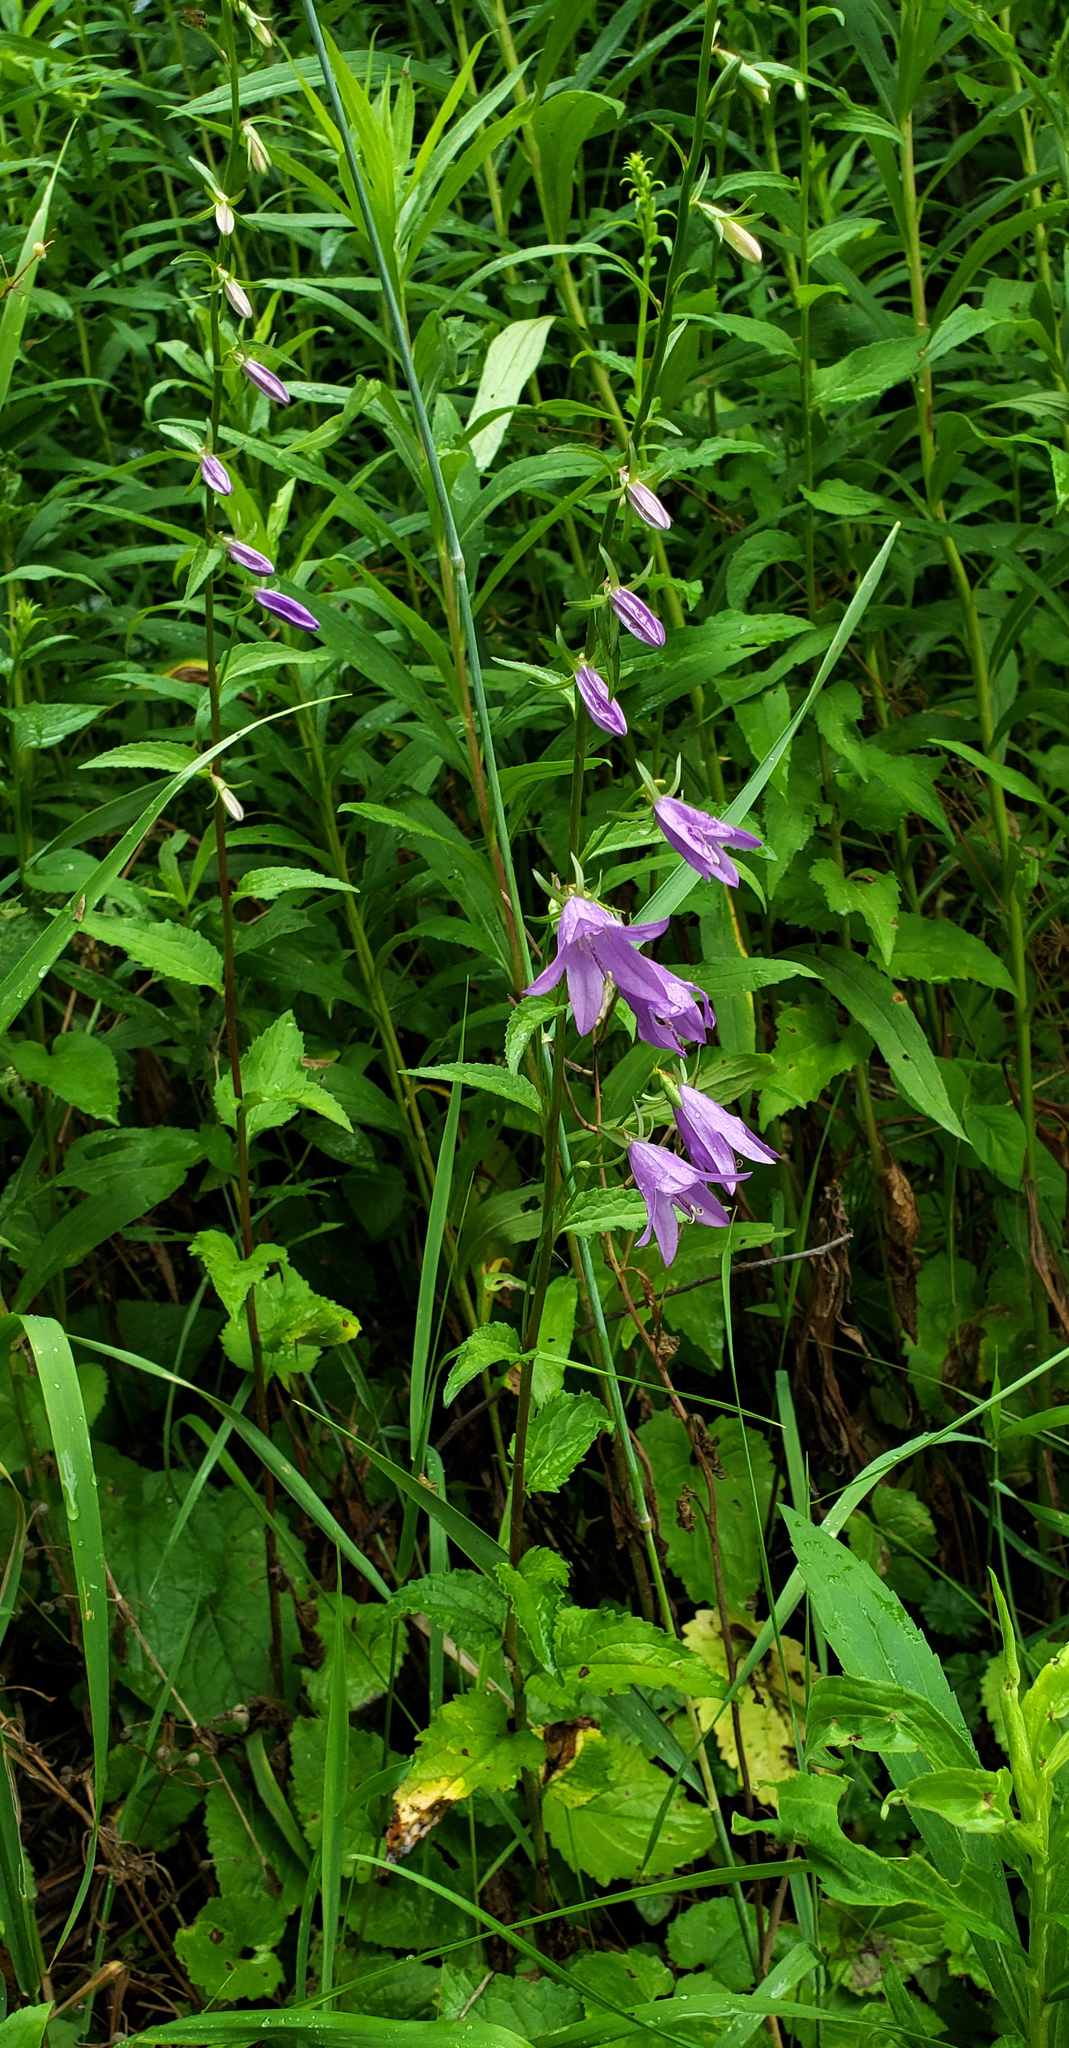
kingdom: Plantae
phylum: Tracheophyta
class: Magnoliopsida
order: Asterales
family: Campanulaceae
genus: Campanula
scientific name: Campanula rapunculoides
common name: Creeping bellflower
